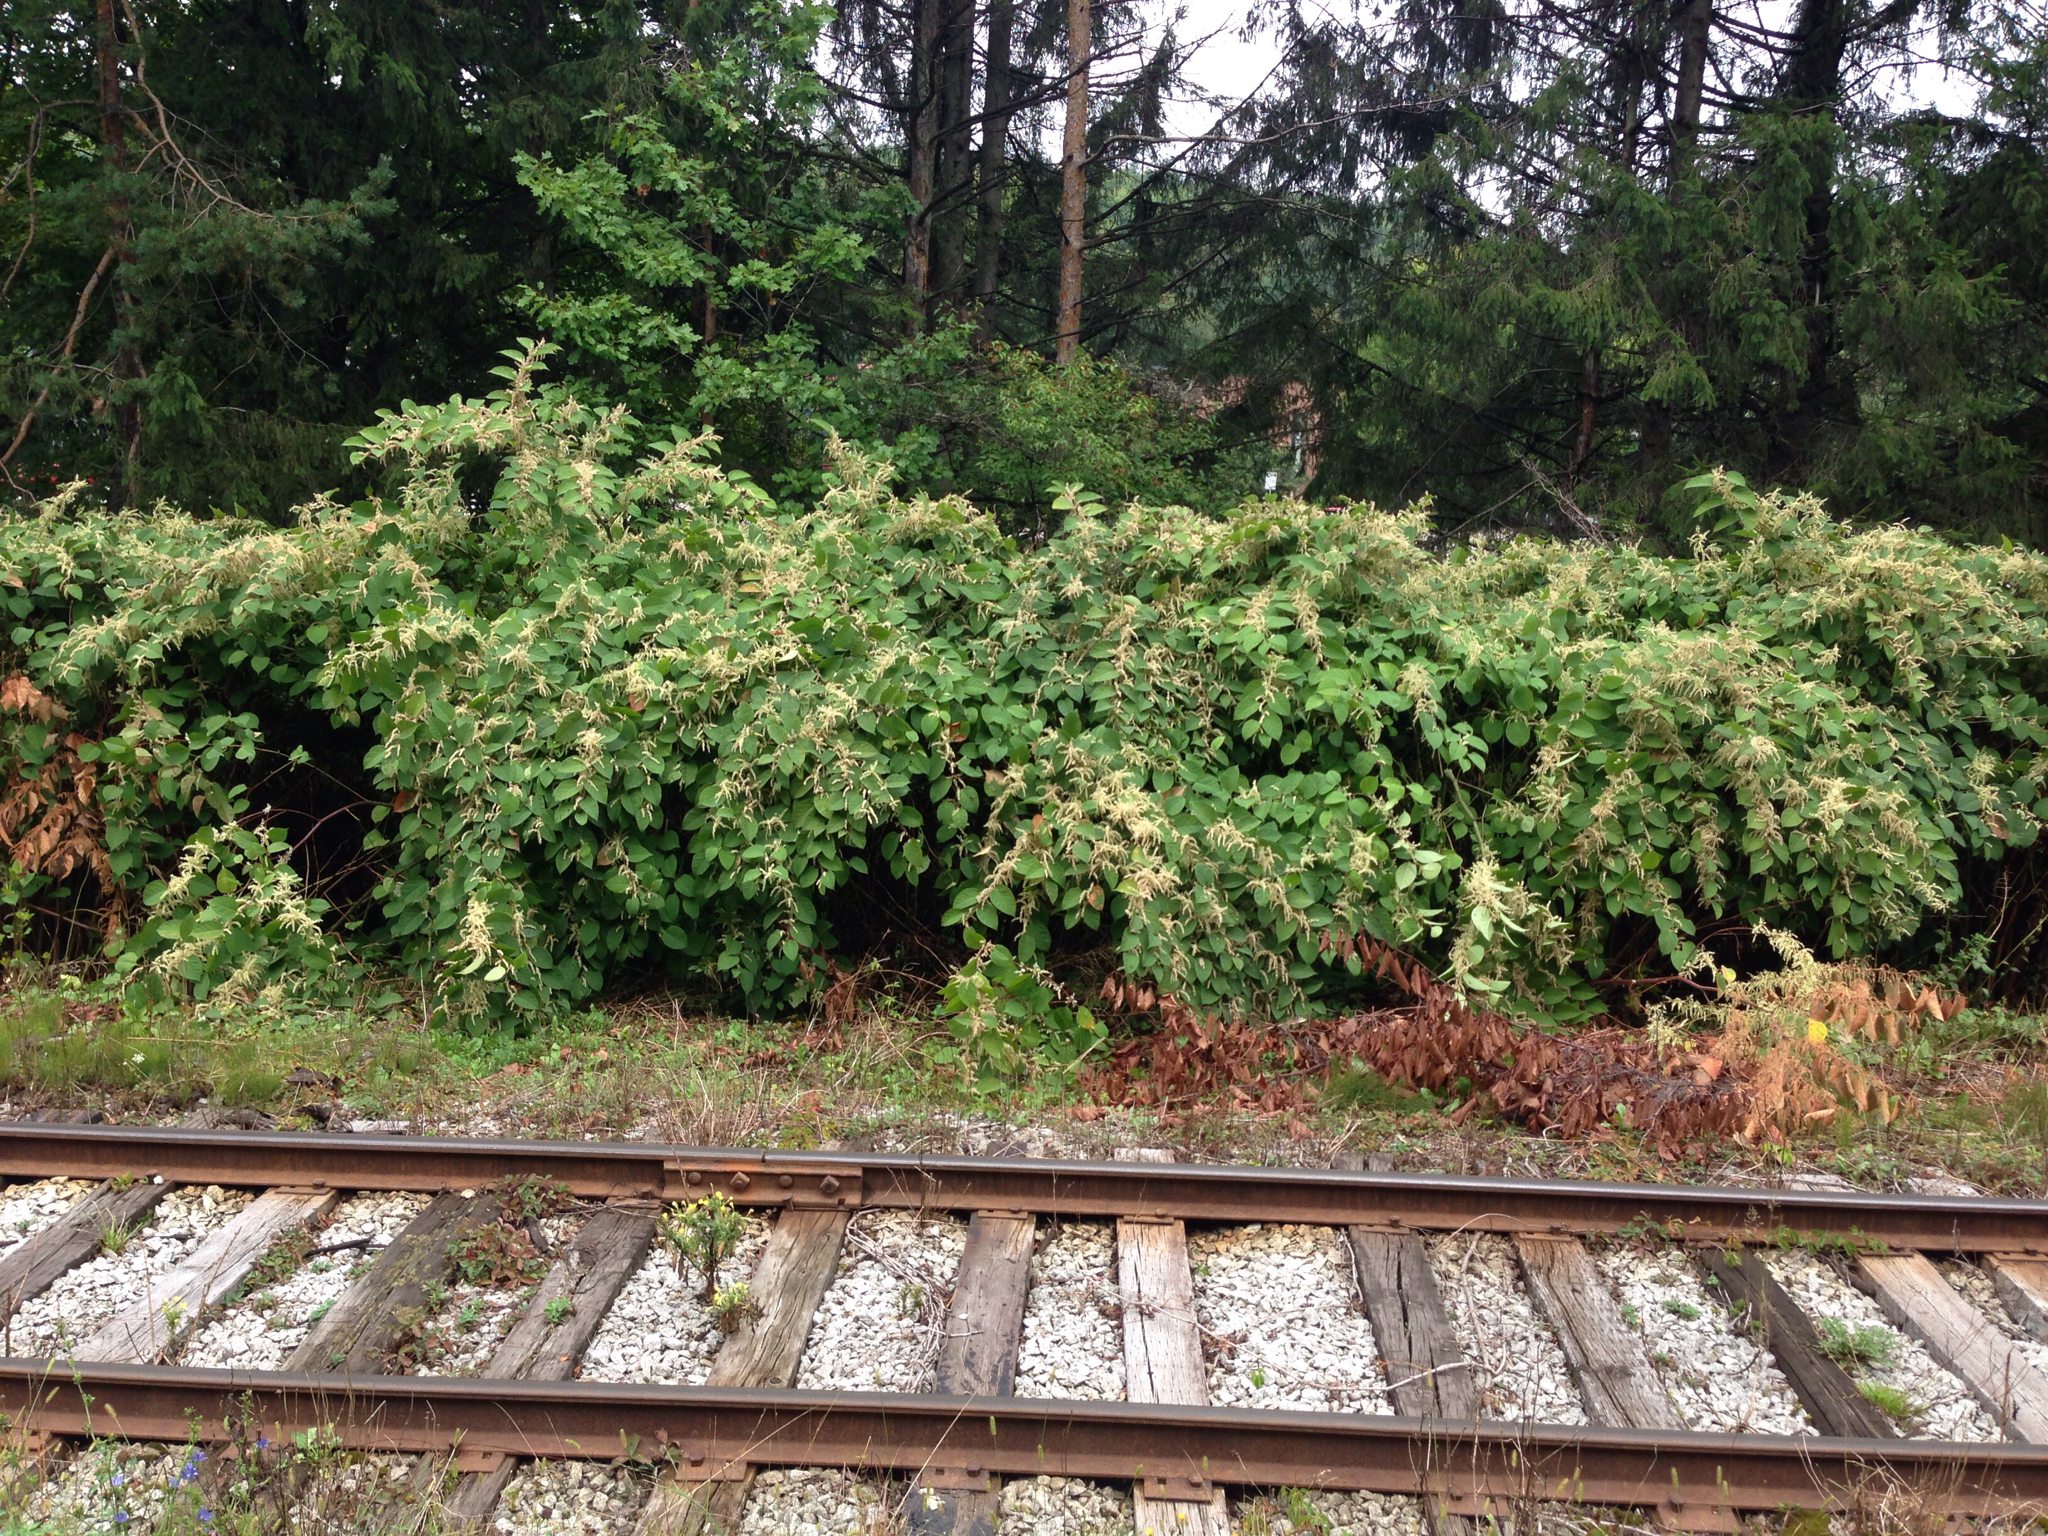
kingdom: Plantae
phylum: Tracheophyta
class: Magnoliopsida
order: Caryophyllales
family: Polygonaceae
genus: Reynoutria
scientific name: Reynoutria japonica
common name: Japanese knotweed
